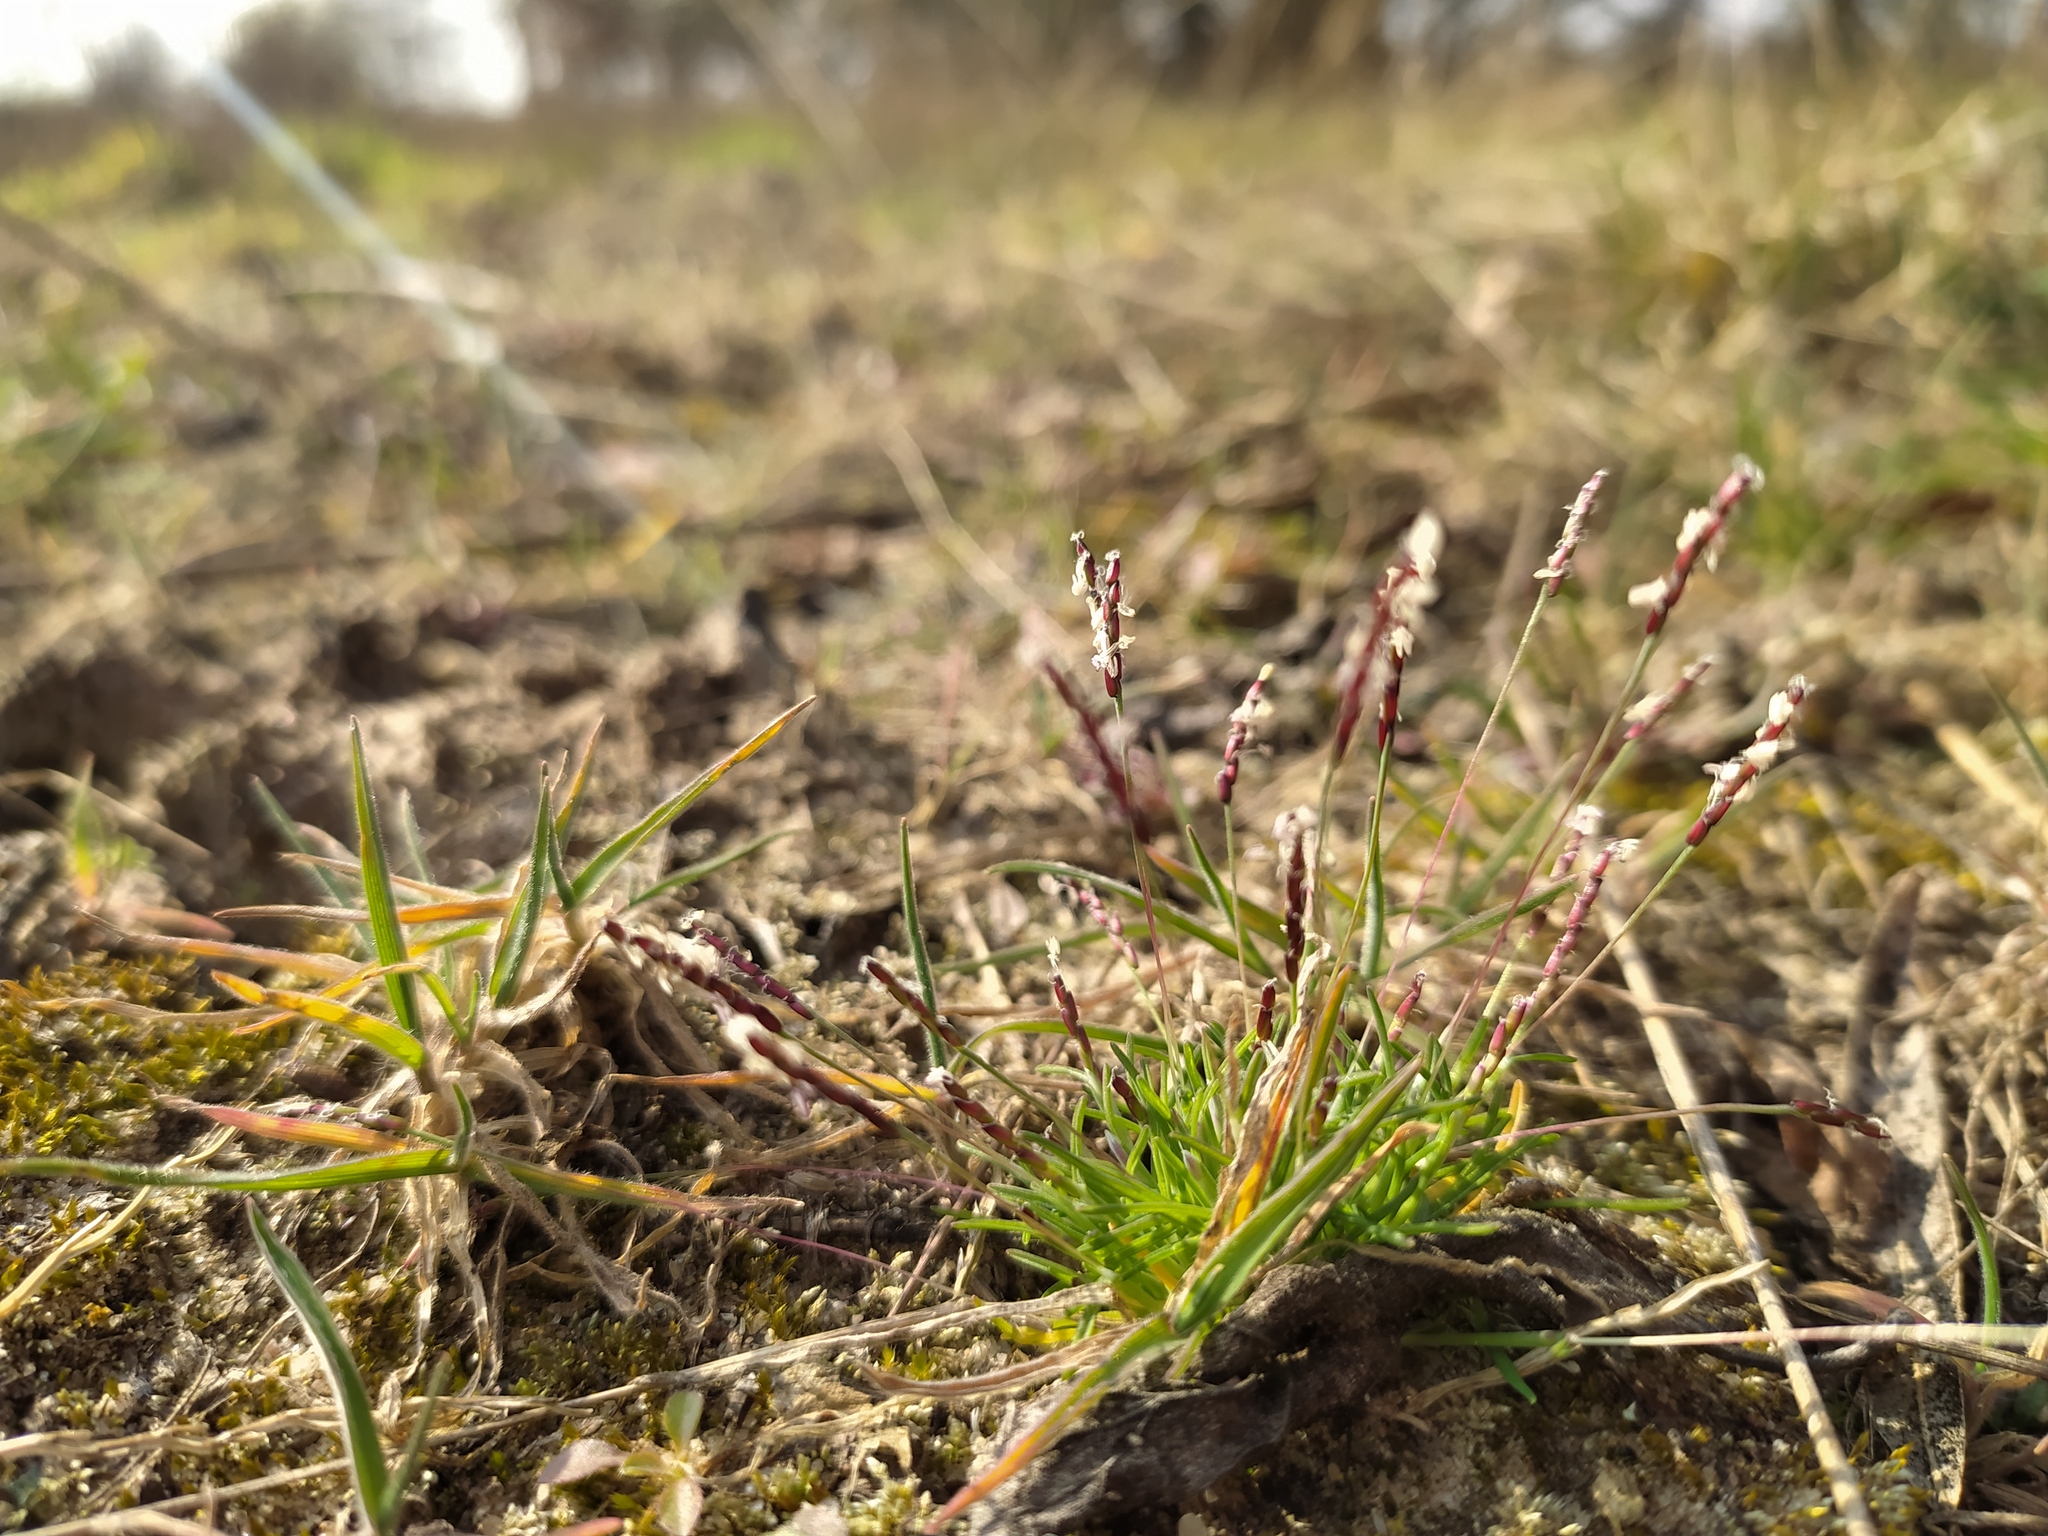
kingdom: Plantae
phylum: Tracheophyta
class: Liliopsida
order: Poales
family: Poaceae
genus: Mibora
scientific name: Mibora minima
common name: Early sand-grass
